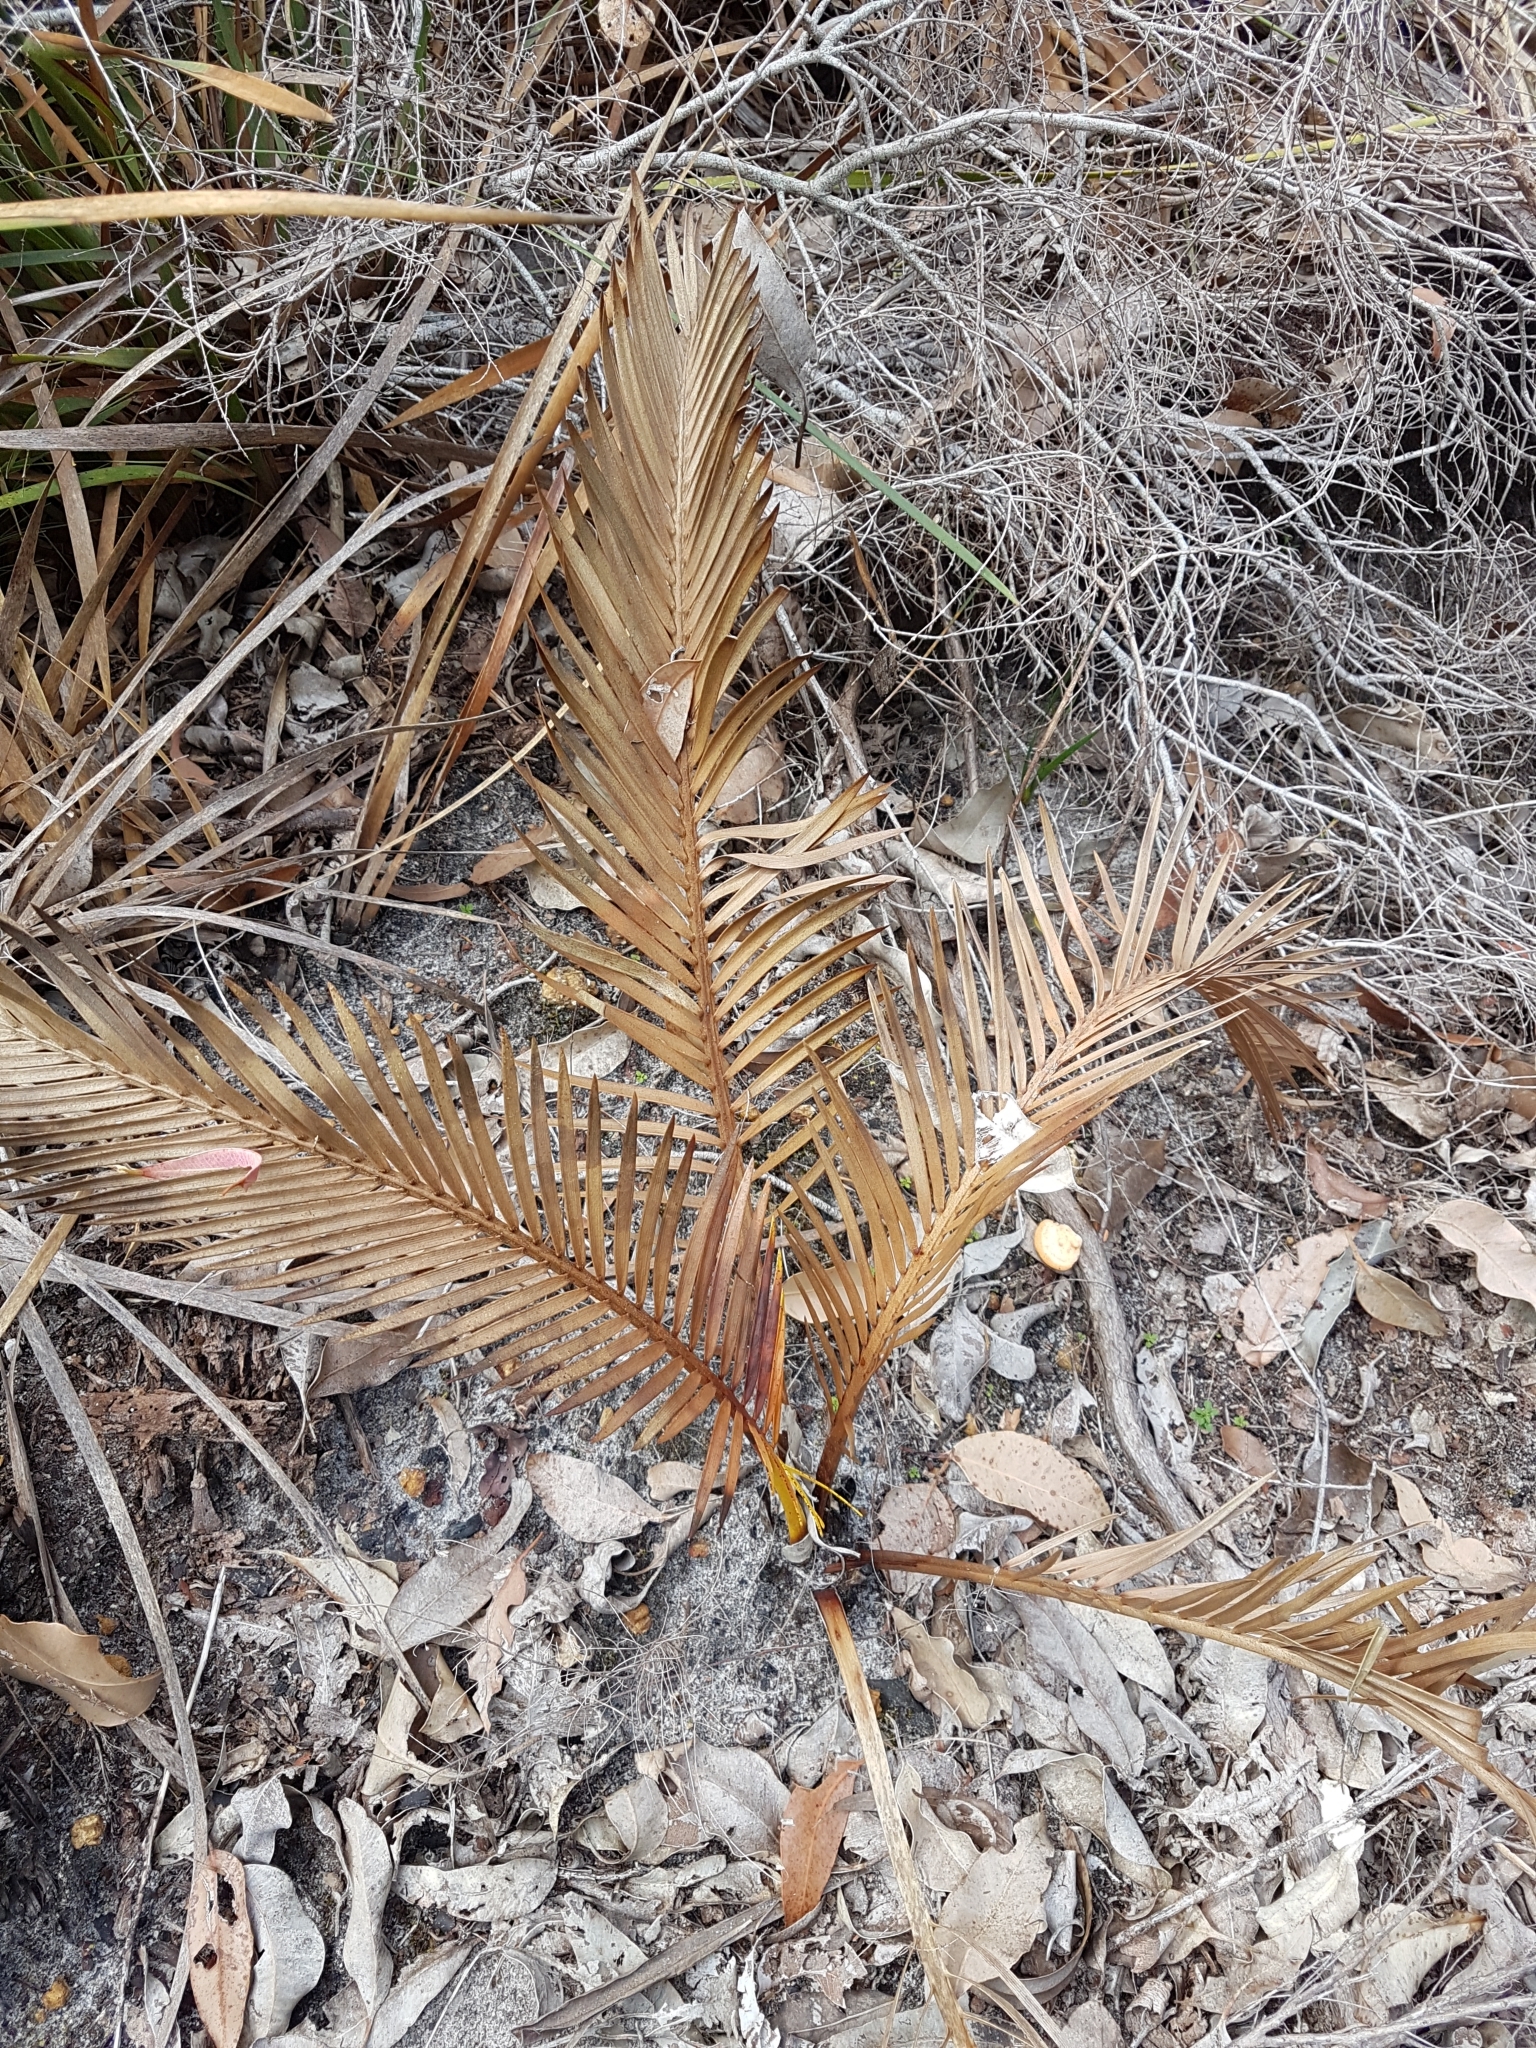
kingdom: Plantae
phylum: Tracheophyta
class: Cycadopsida
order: Cycadales
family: Zamiaceae
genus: Macrozamia
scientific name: Macrozamia riedlei
